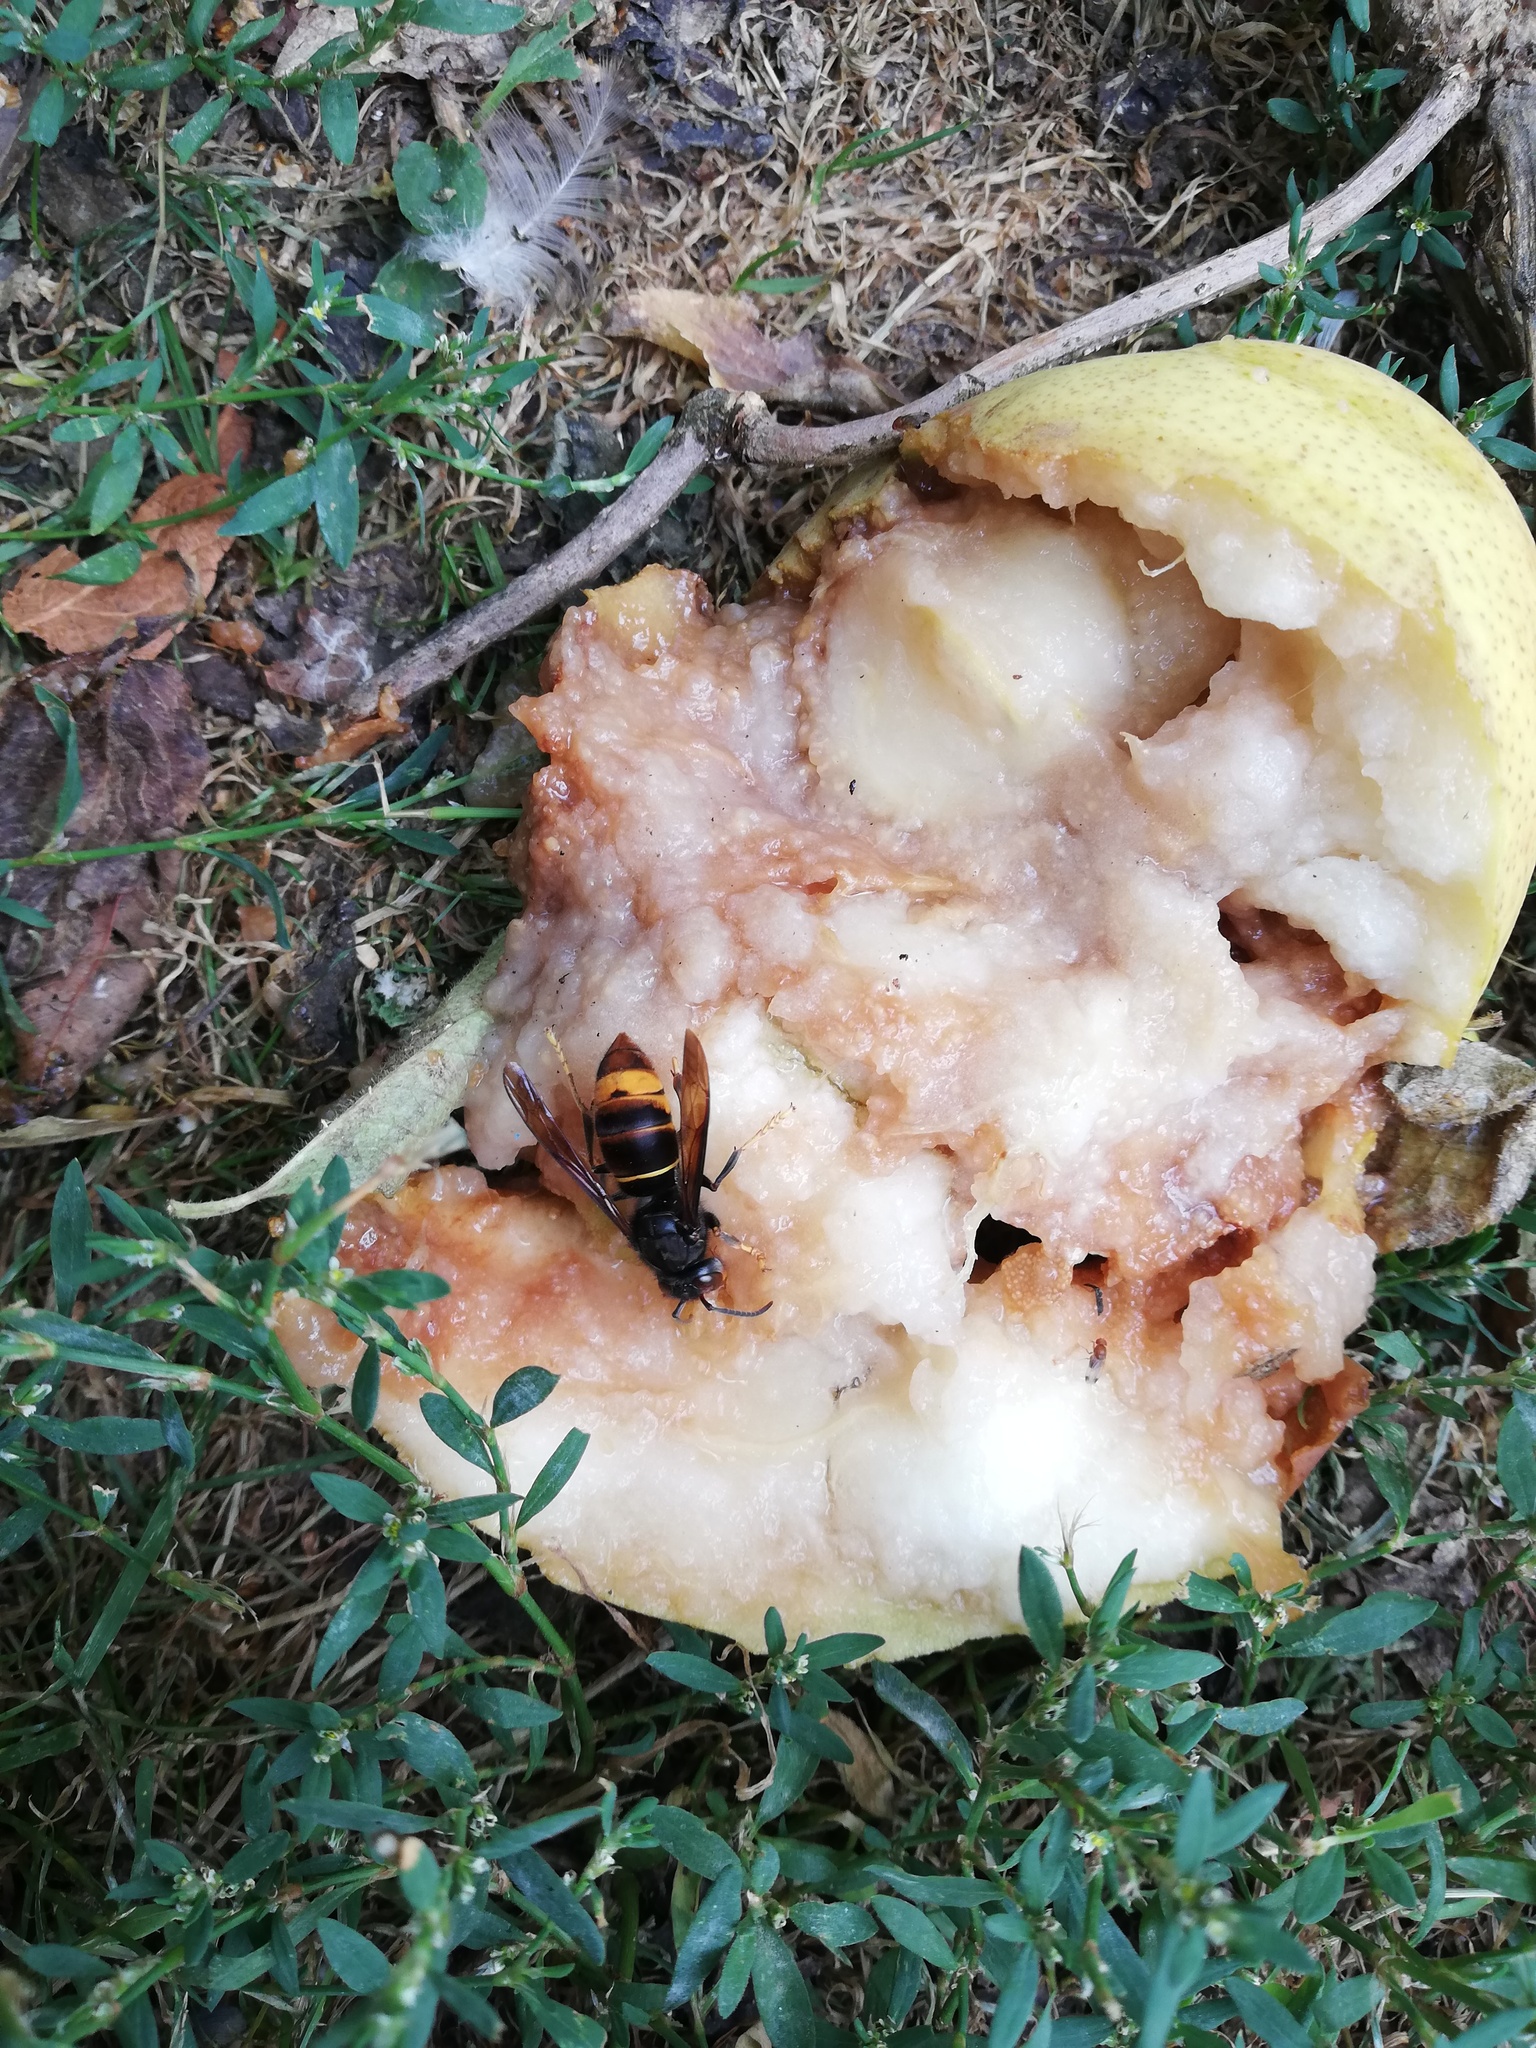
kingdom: Animalia
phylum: Arthropoda
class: Insecta
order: Hymenoptera
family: Vespidae
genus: Vespa
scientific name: Vespa velutina
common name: Asian hornet
